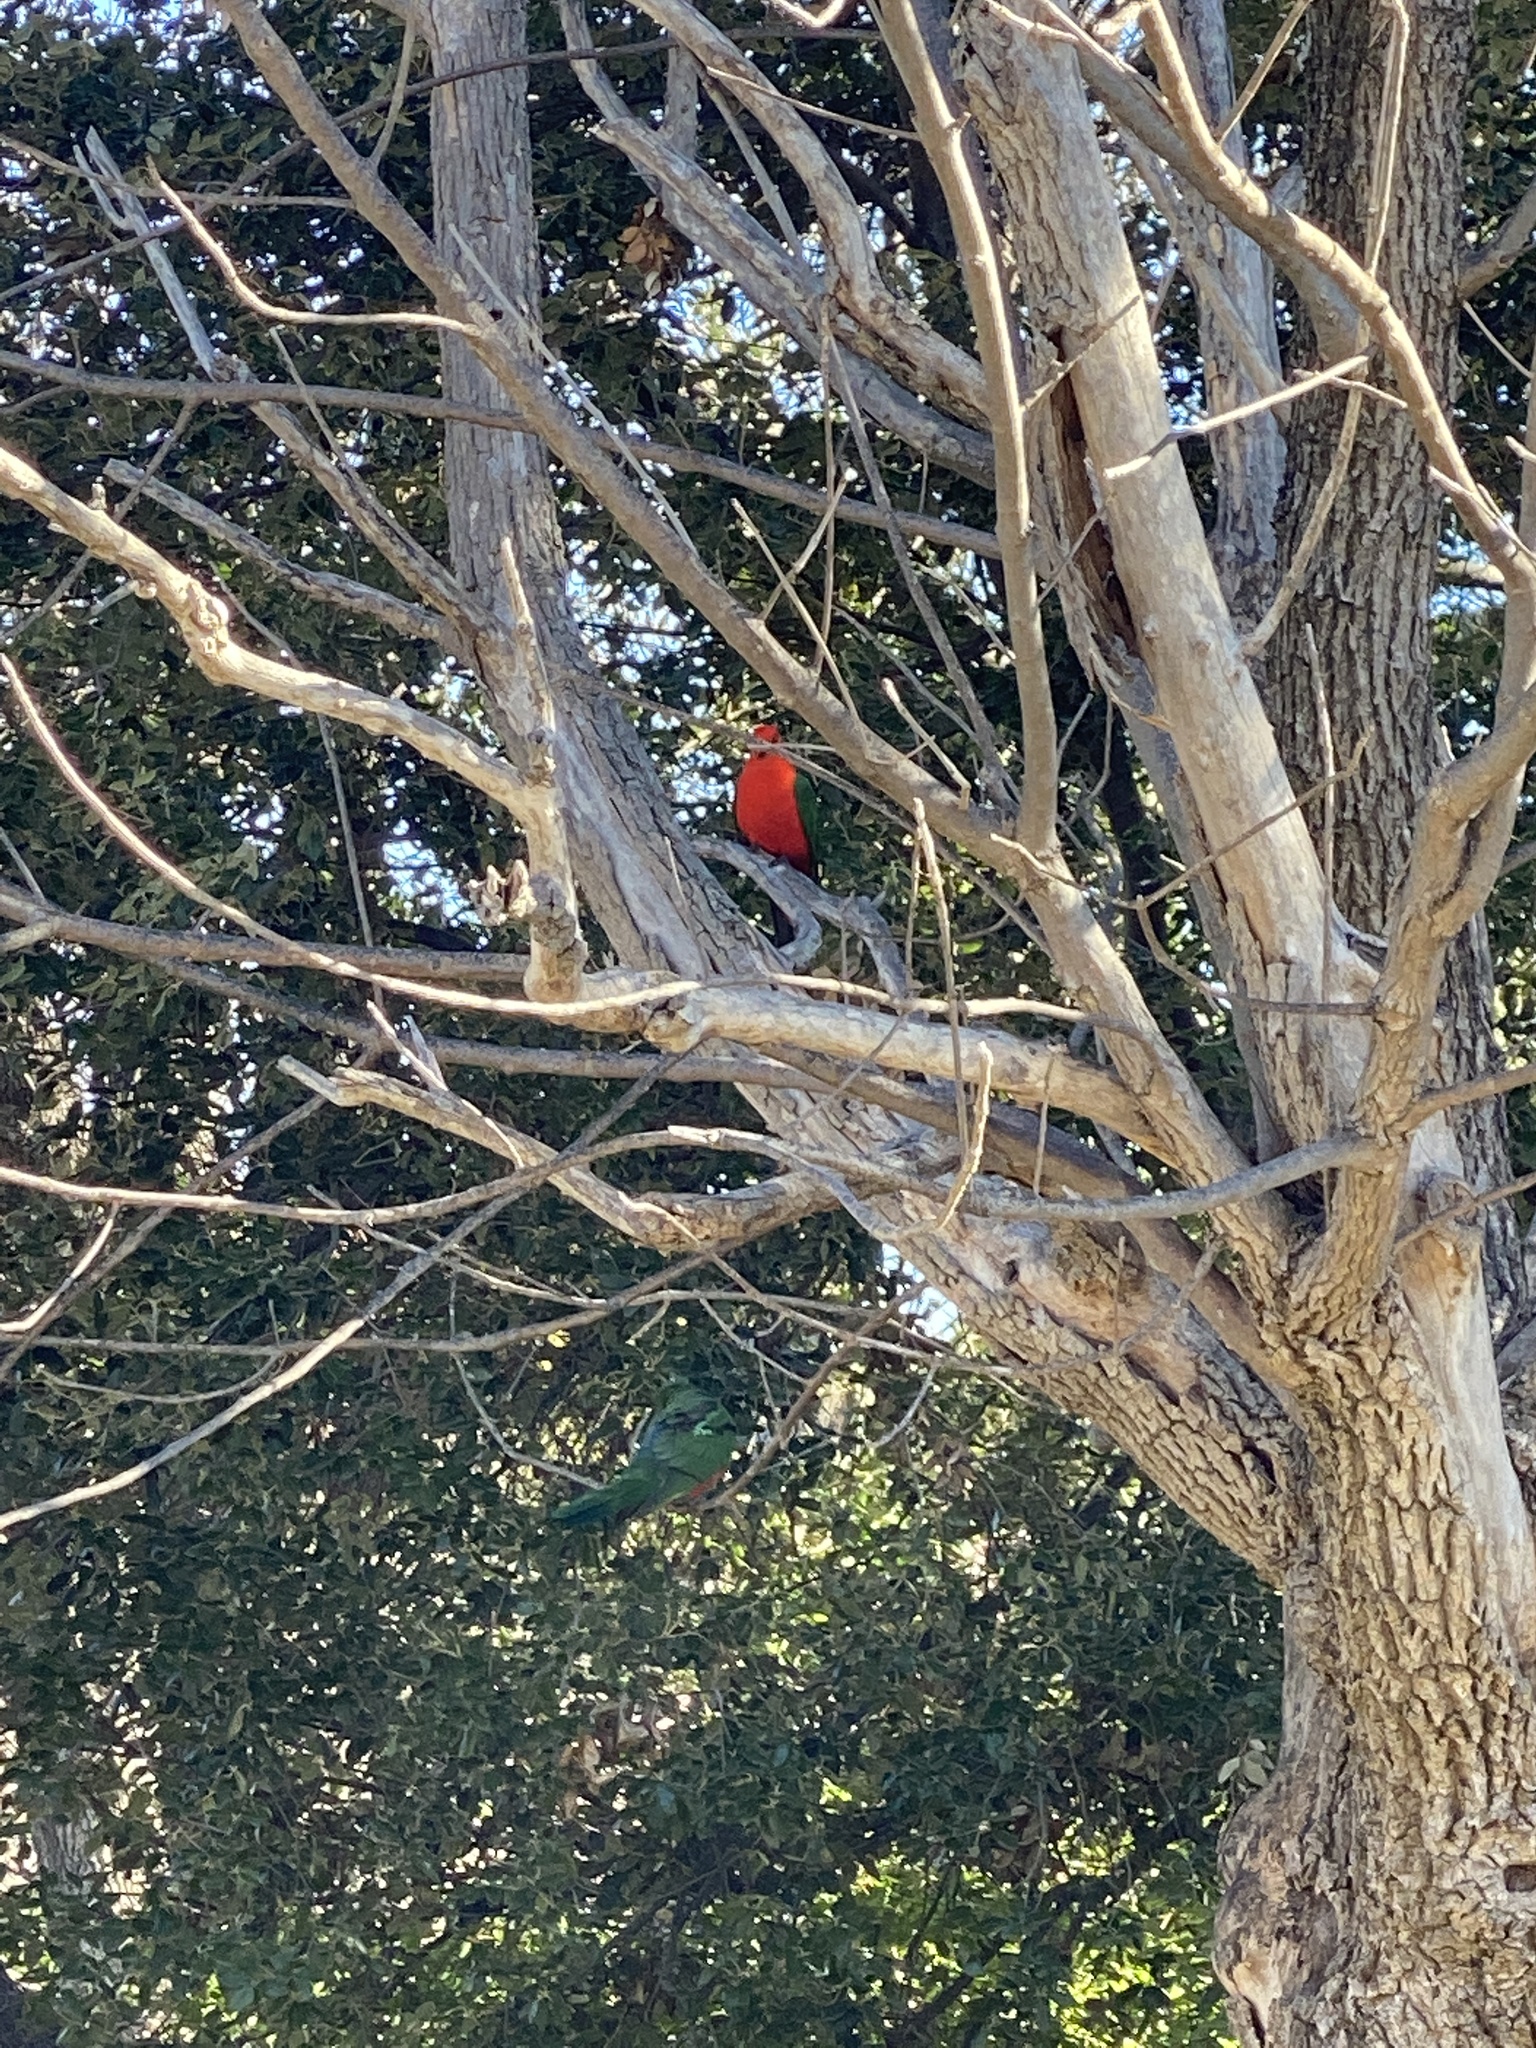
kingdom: Animalia
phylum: Chordata
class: Aves
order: Psittaciformes
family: Psittacidae
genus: Alisterus
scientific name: Alisterus scapularis
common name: Australian king parrot
